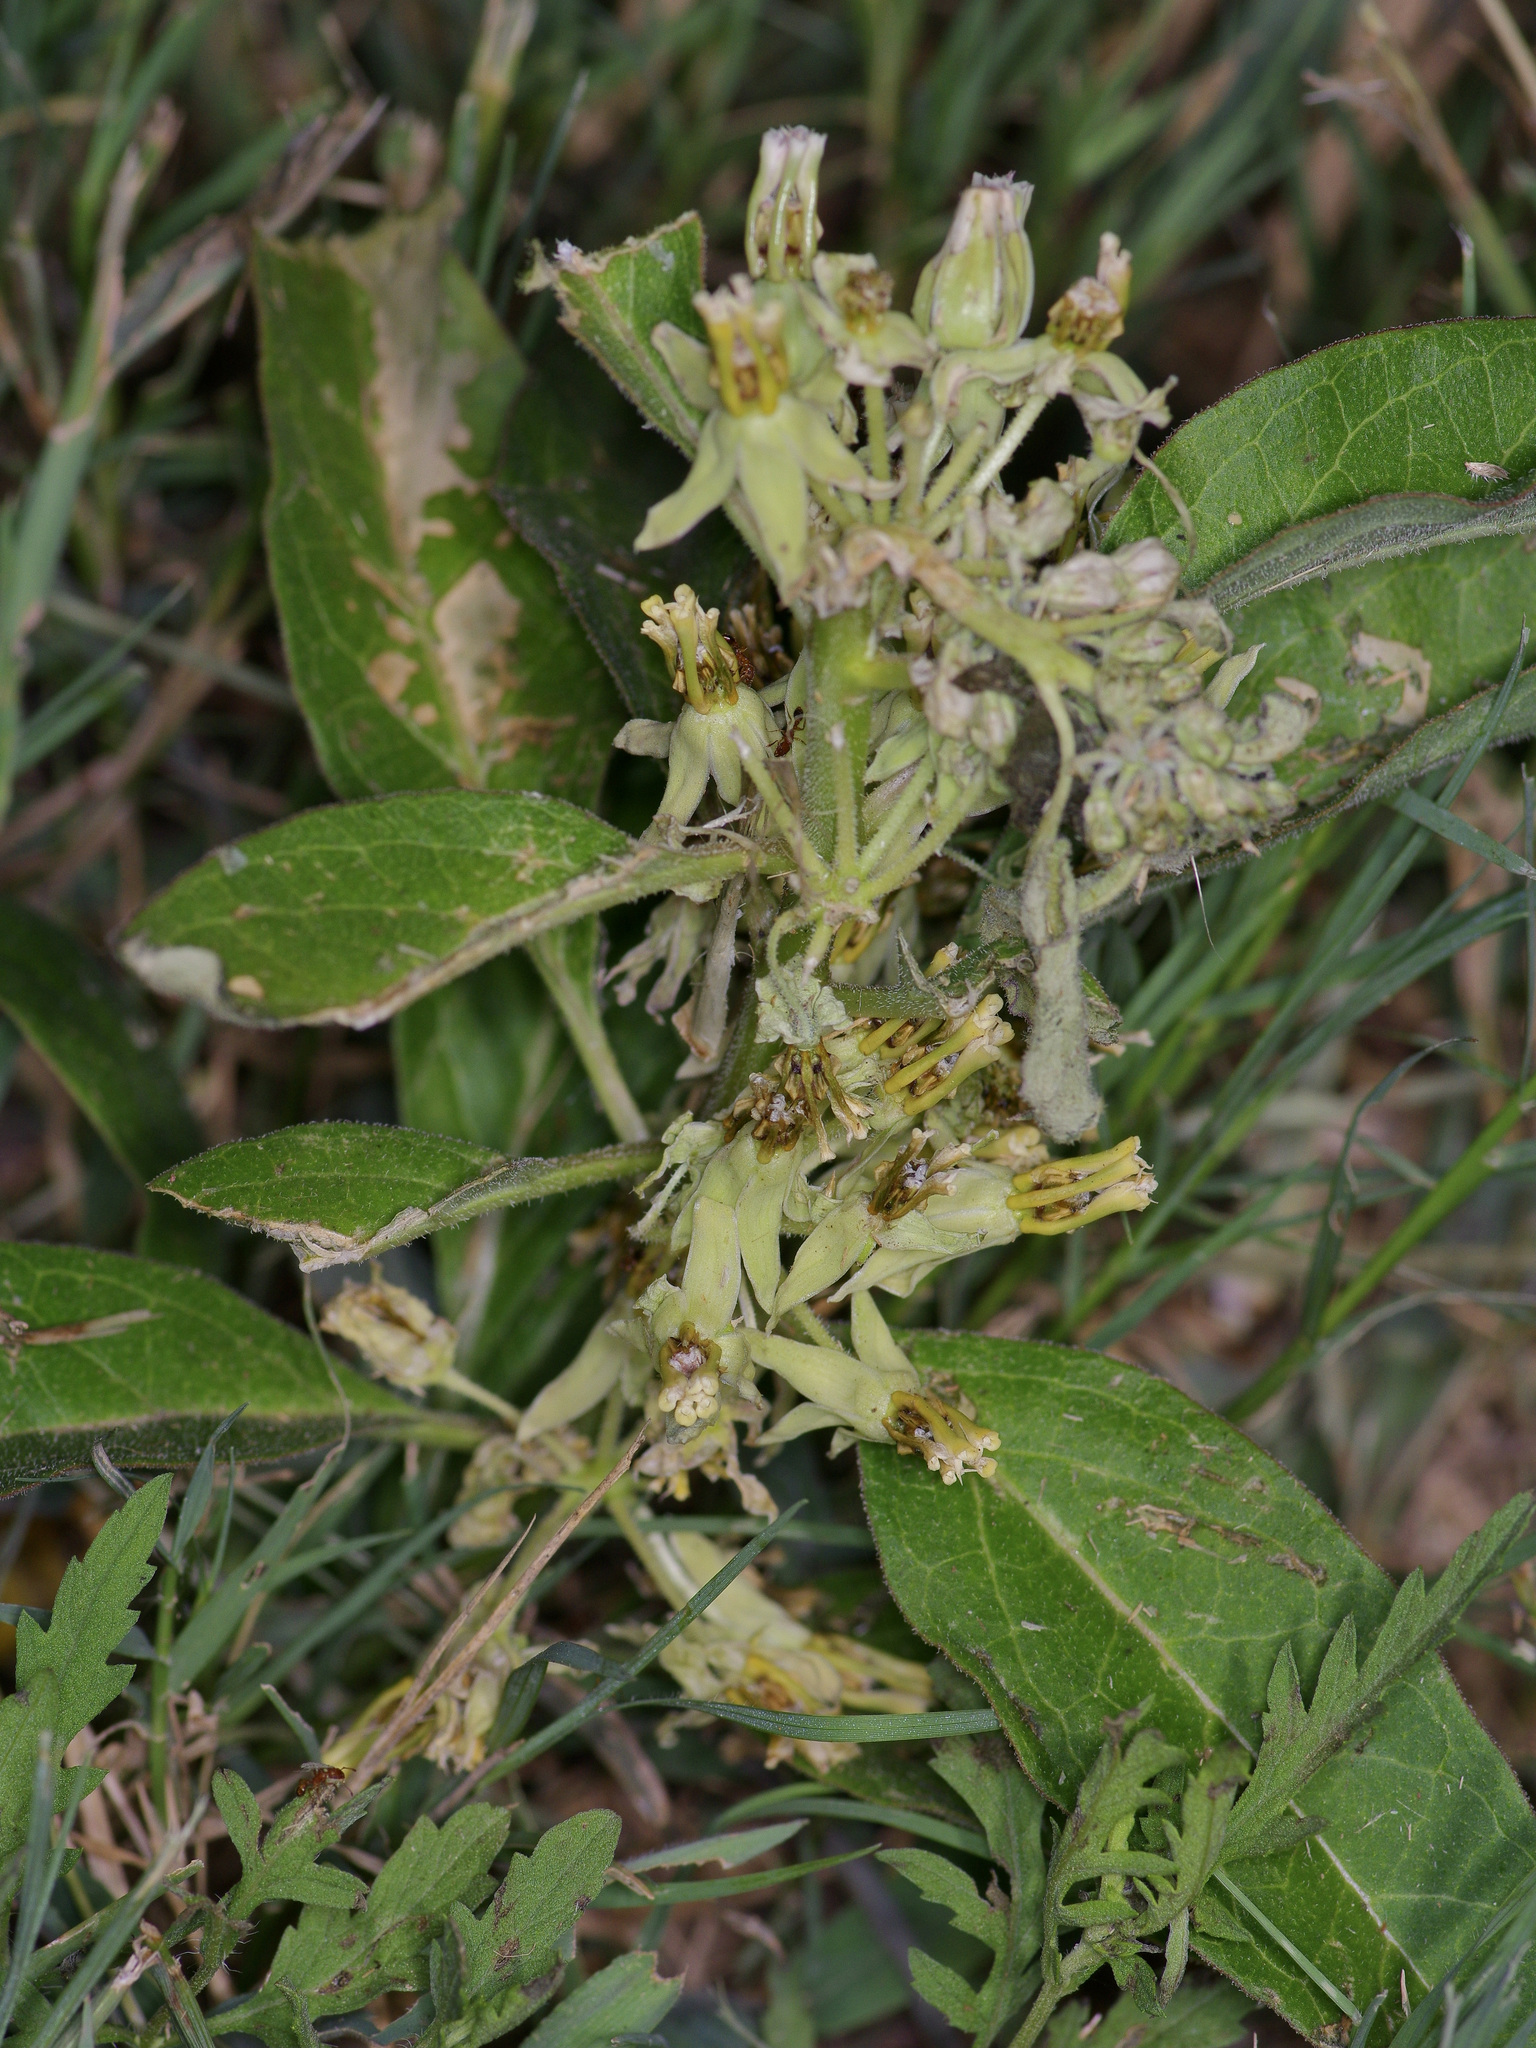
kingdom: Plantae
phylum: Tracheophyta
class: Magnoliopsida
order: Gentianales
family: Apocynaceae
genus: Asclepias
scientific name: Asclepias oenotheroides
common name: Zizotes milkweed
